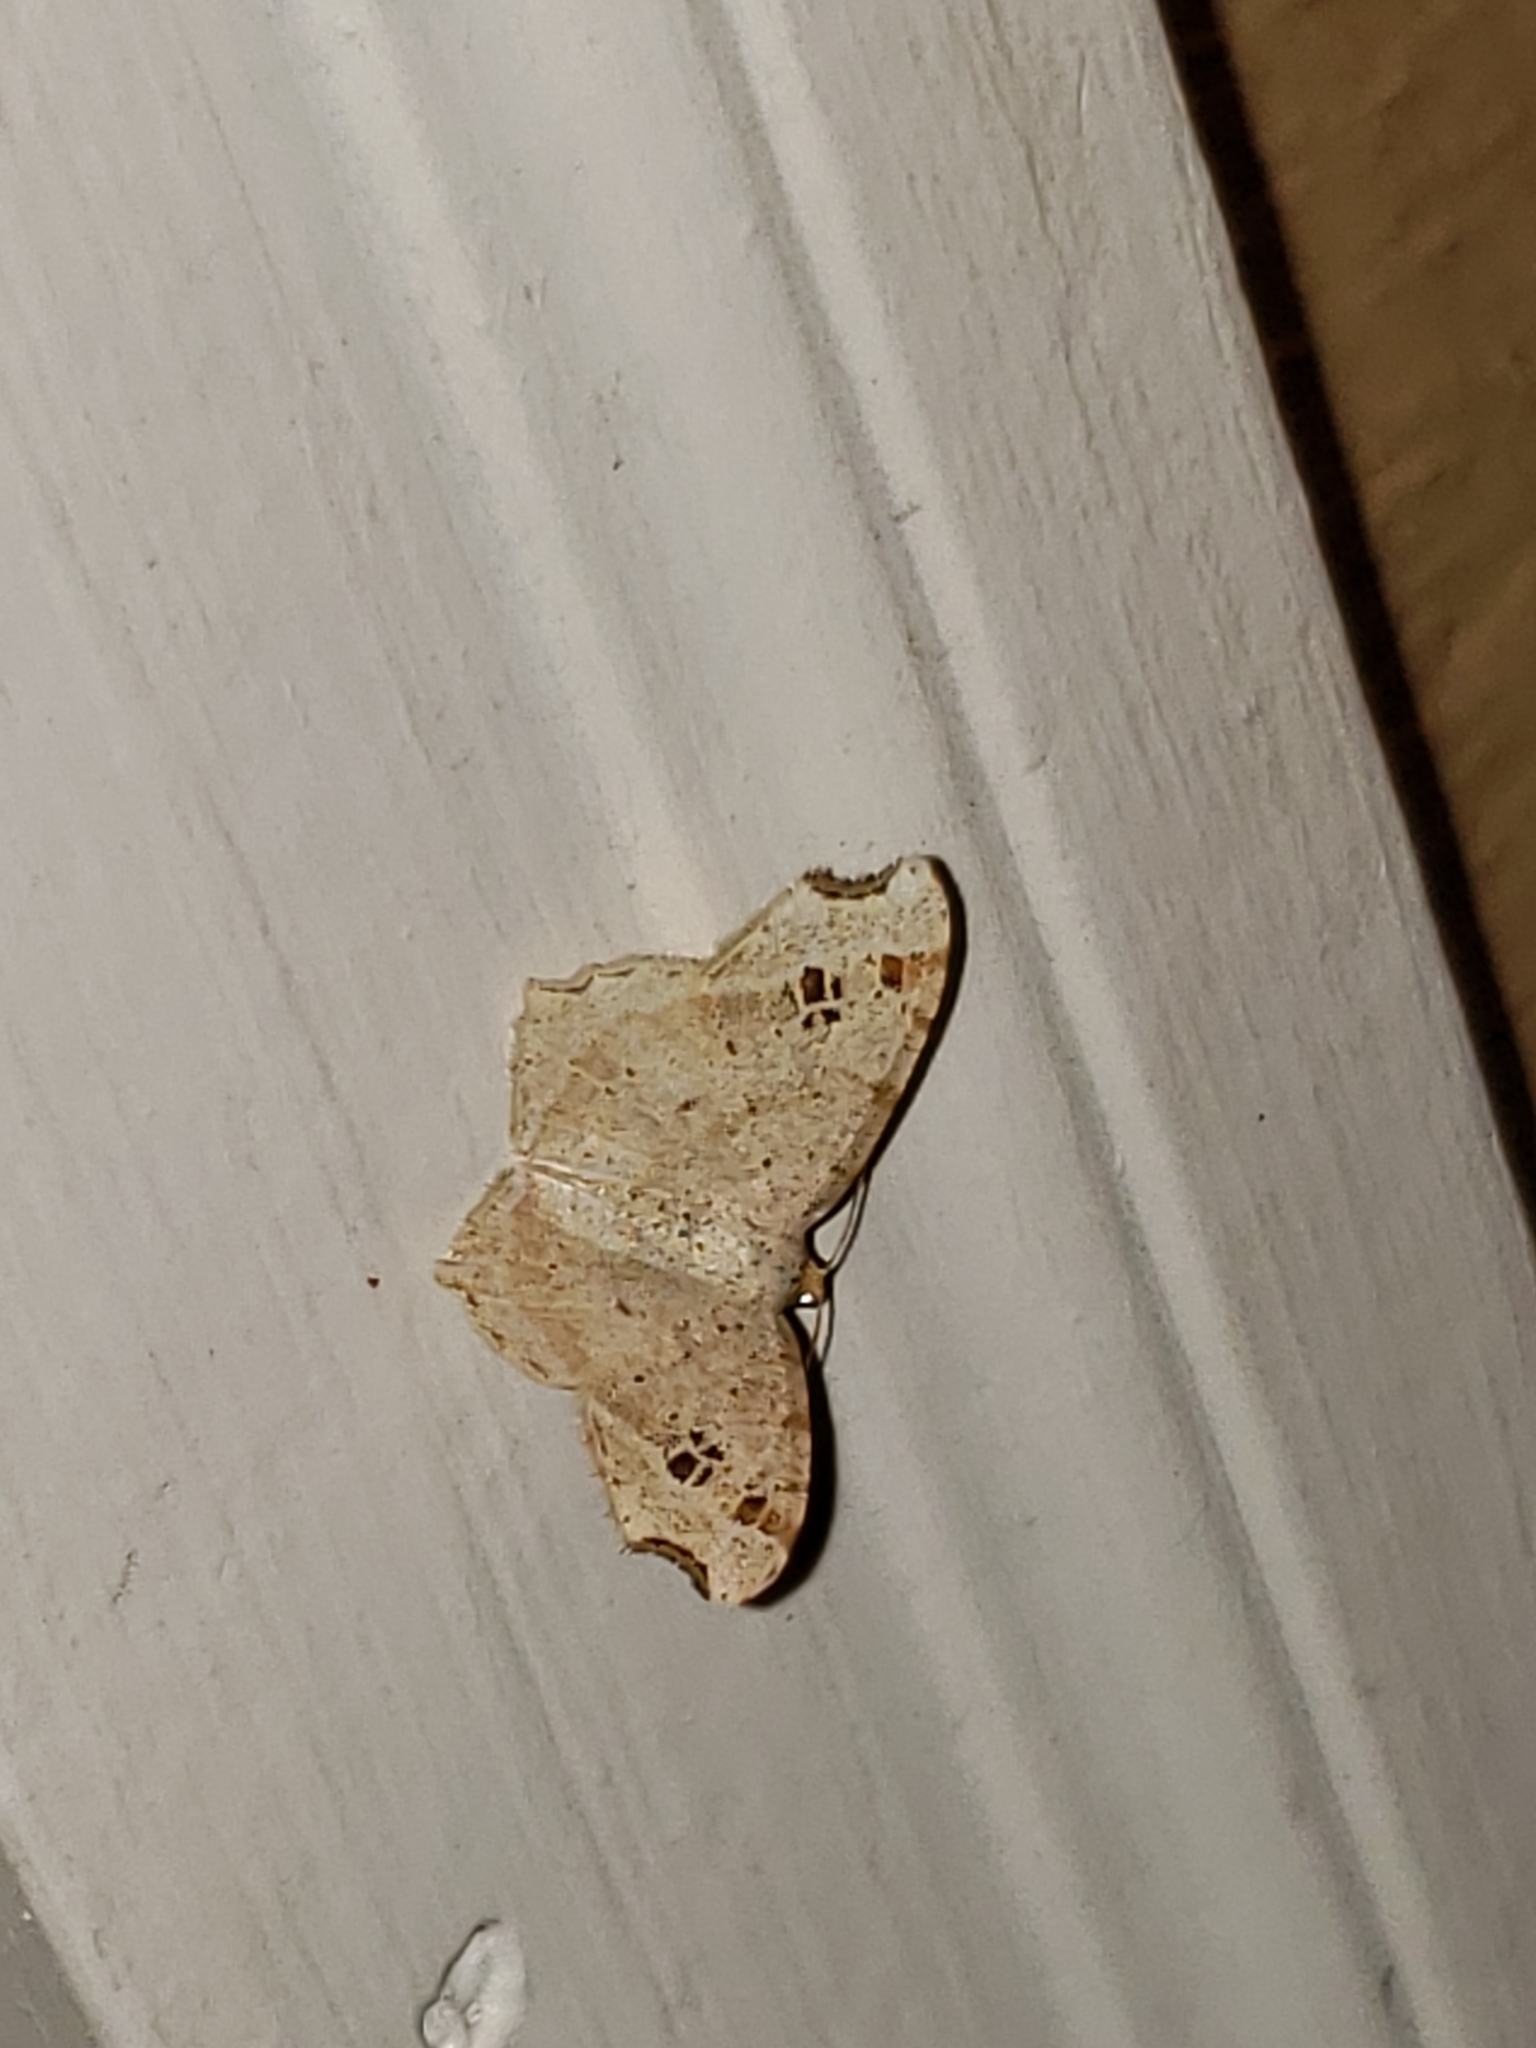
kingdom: Animalia
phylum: Arthropoda
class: Insecta
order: Lepidoptera
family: Geometridae
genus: Macaria
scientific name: Macaria aemulataria
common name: Common angle
